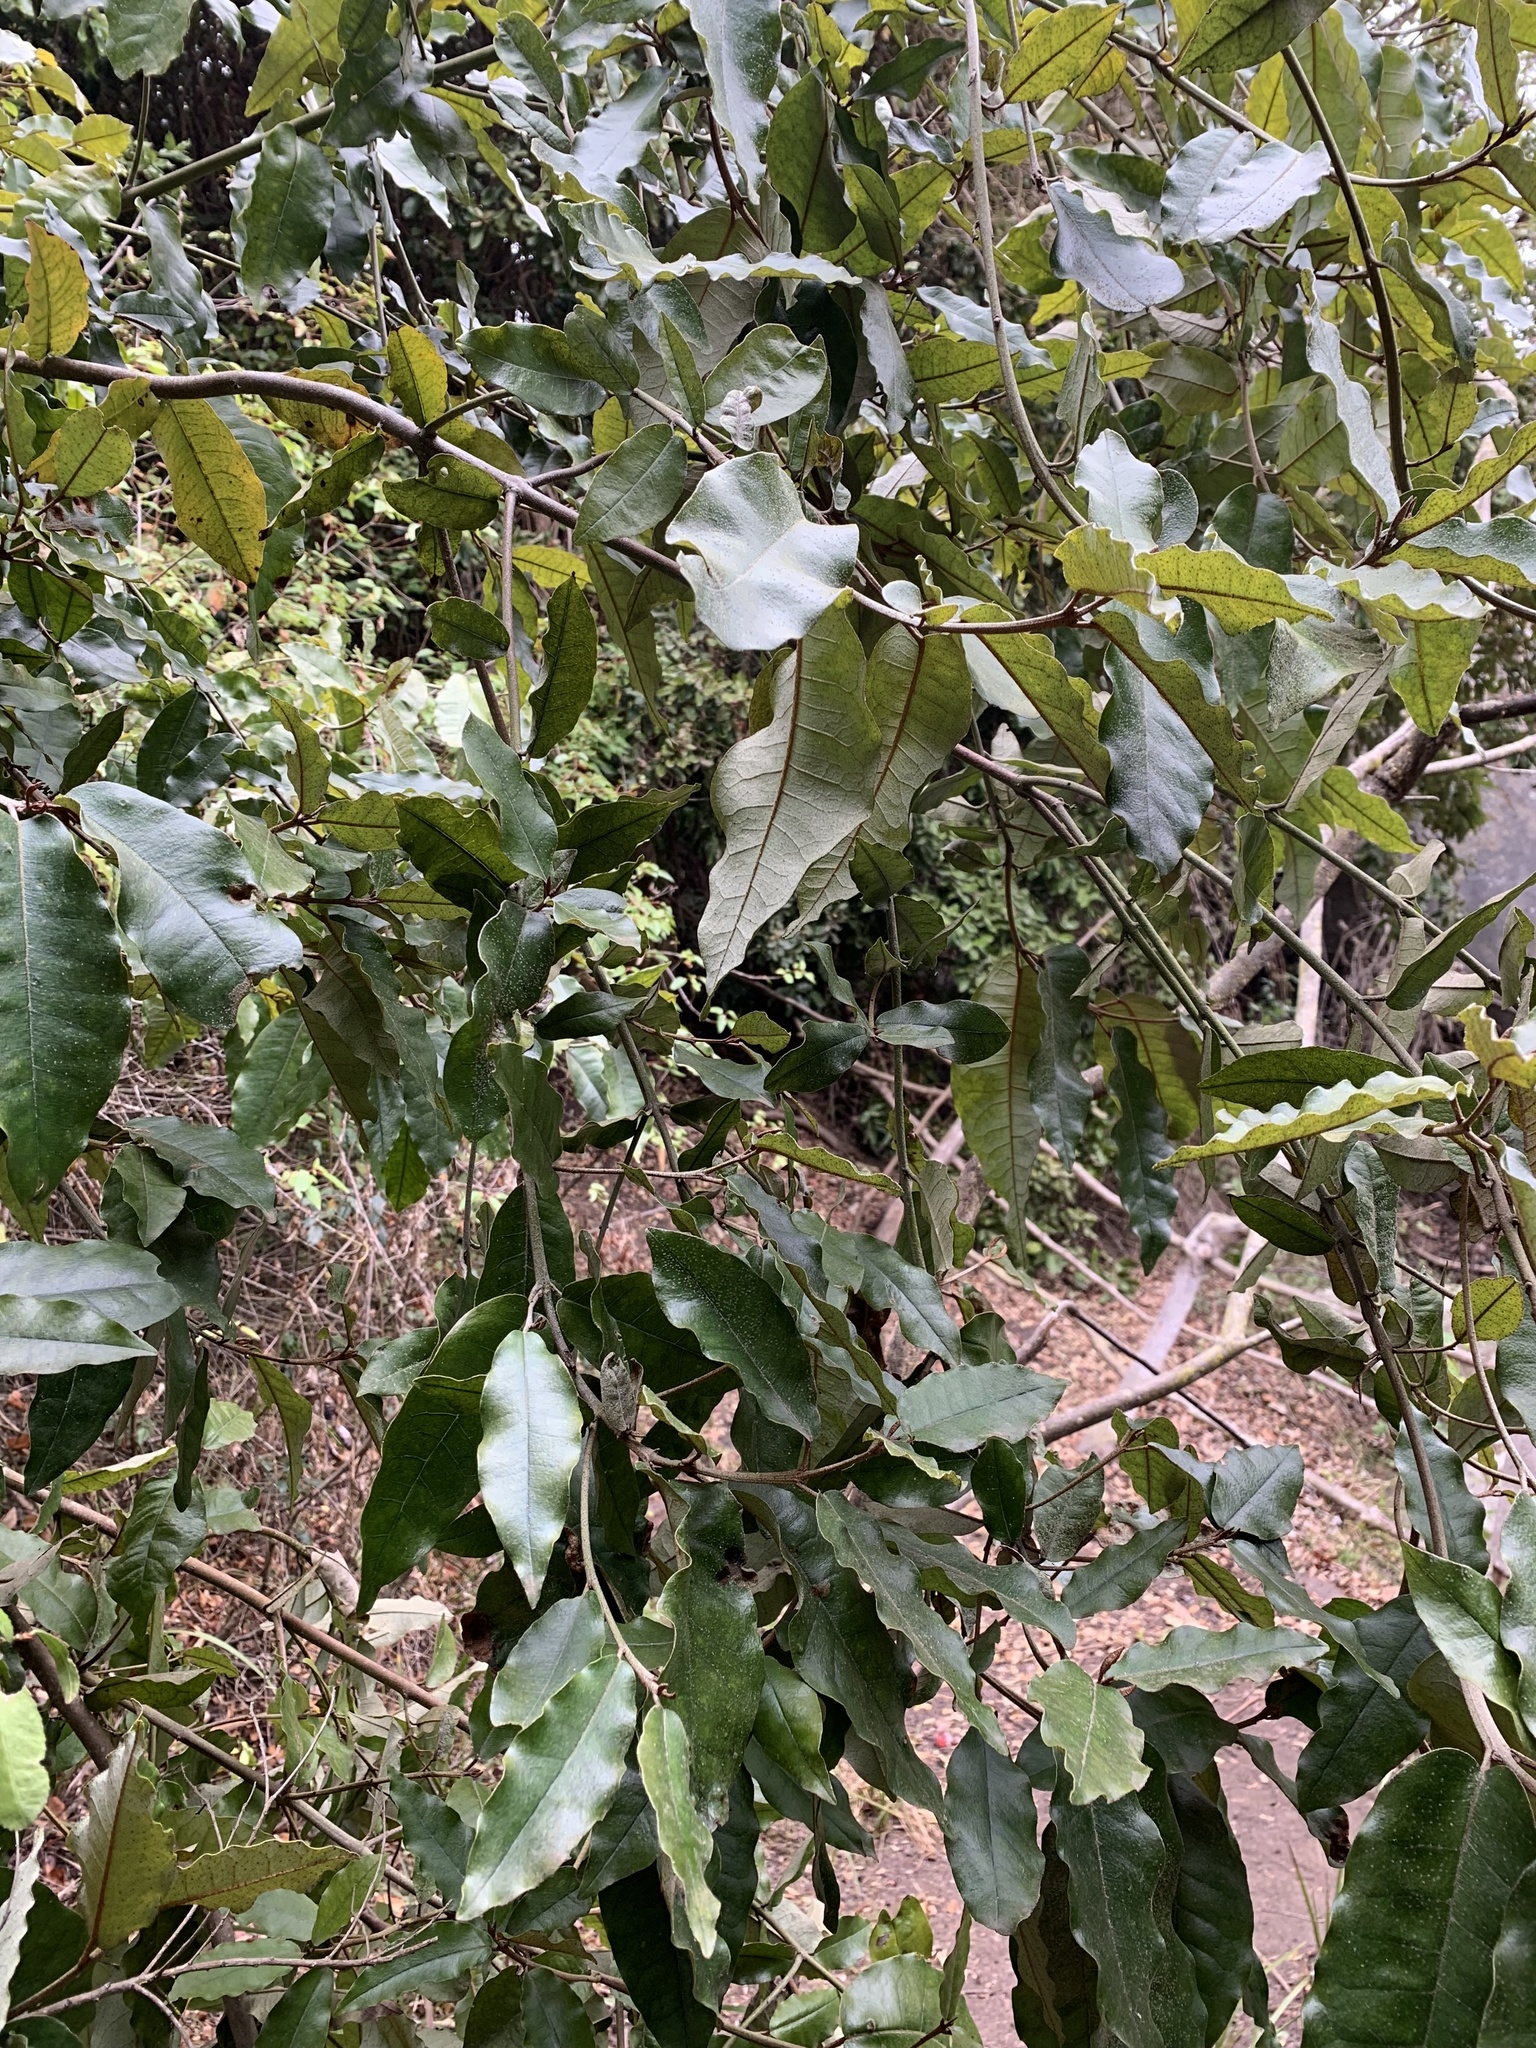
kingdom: Plantae
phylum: Tracheophyta
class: Magnoliopsida
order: Berberidopsidales
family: Aextoxicaceae
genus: Aextoxicon
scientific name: Aextoxicon punctatum
